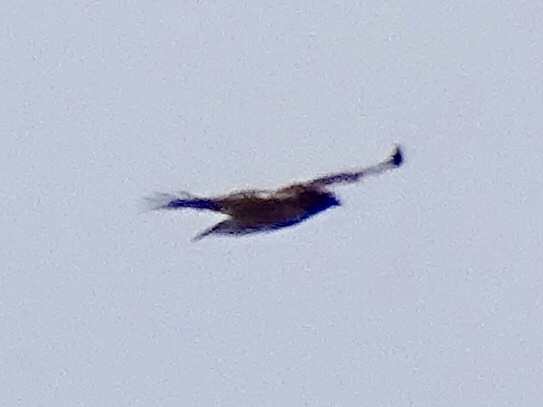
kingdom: Animalia
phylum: Chordata
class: Aves
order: Accipitriformes
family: Accipitridae
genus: Buteo
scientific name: Buteo jamaicensis
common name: Red-tailed hawk
